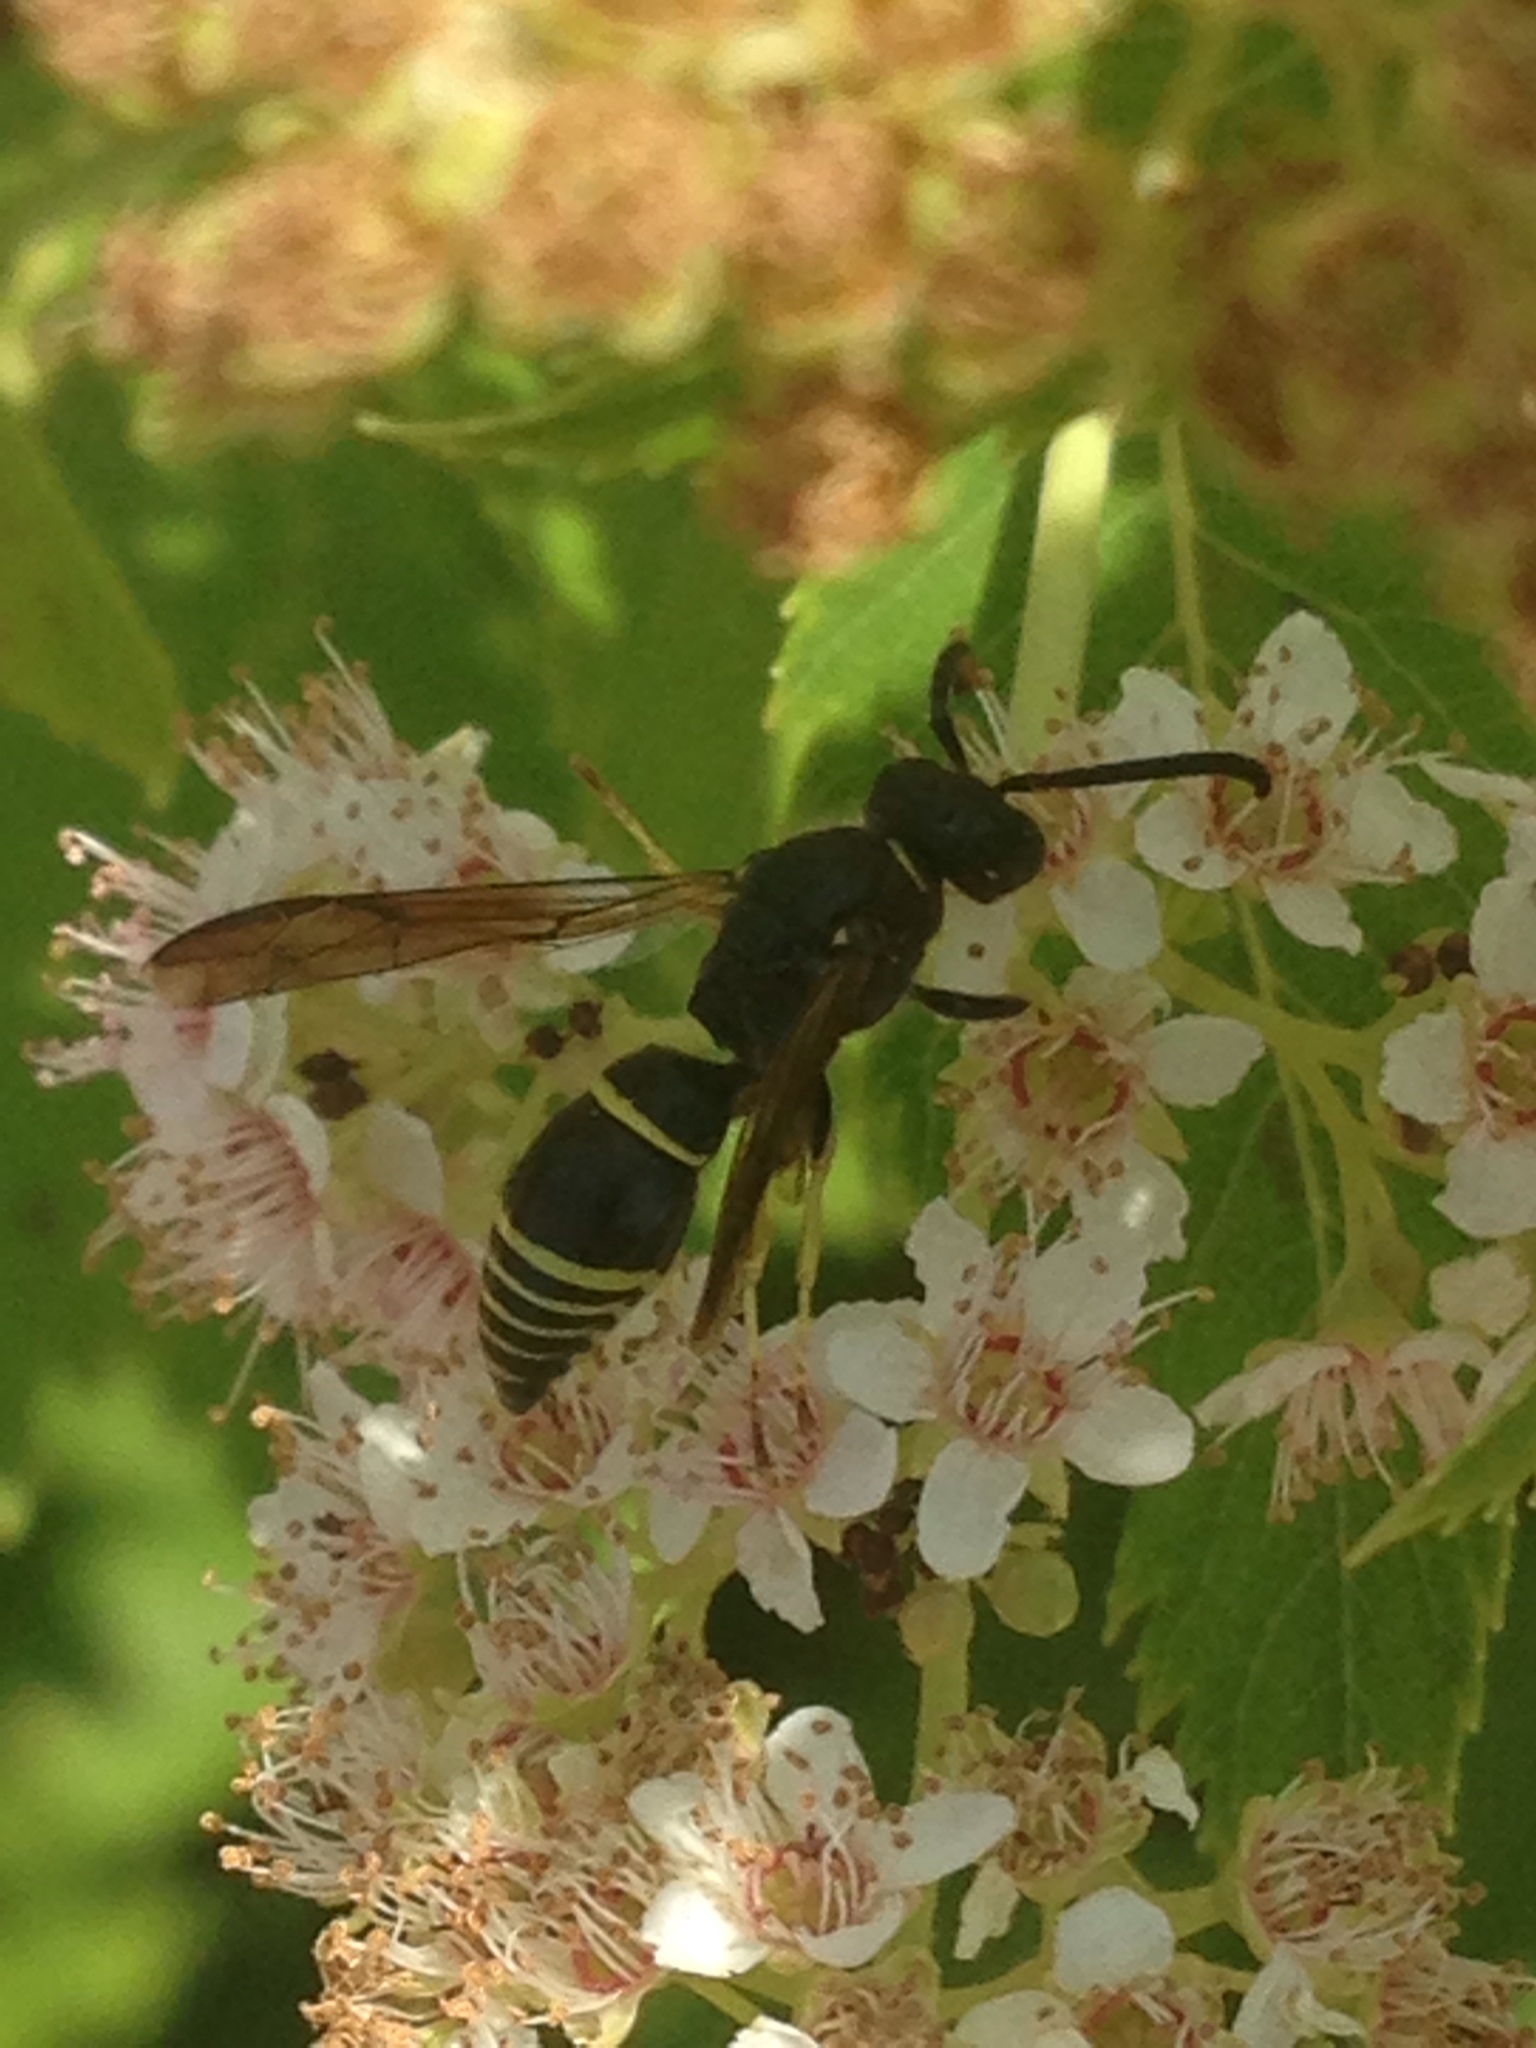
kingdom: Animalia
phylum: Arthropoda
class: Insecta
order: Hymenoptera
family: Vespidae
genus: Ancistrocerus
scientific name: Ancistrocerus
